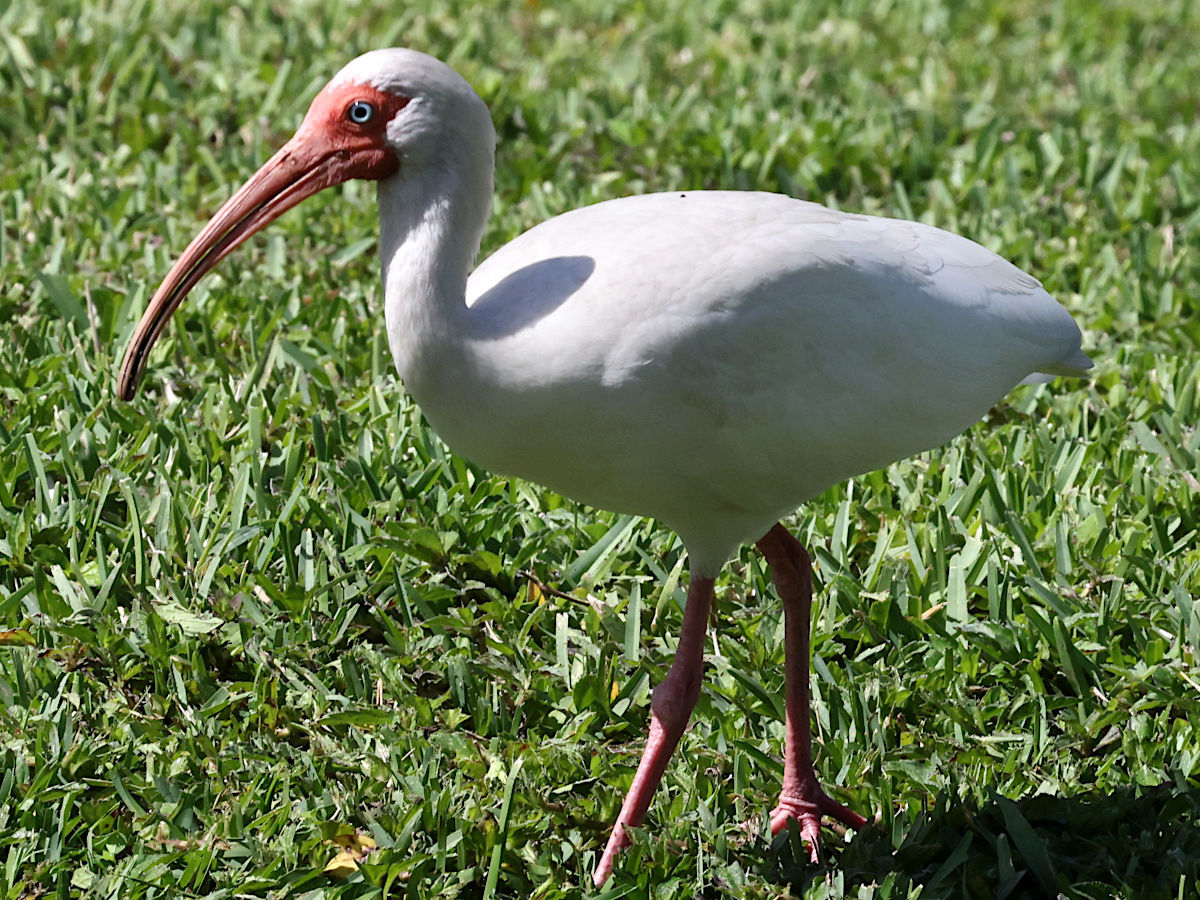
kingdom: Animalia
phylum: Chordata
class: Aves
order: Pelecaniformes
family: Threskiornithidae
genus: Eudocimus
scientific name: Eudocimus albus
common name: White ibis
